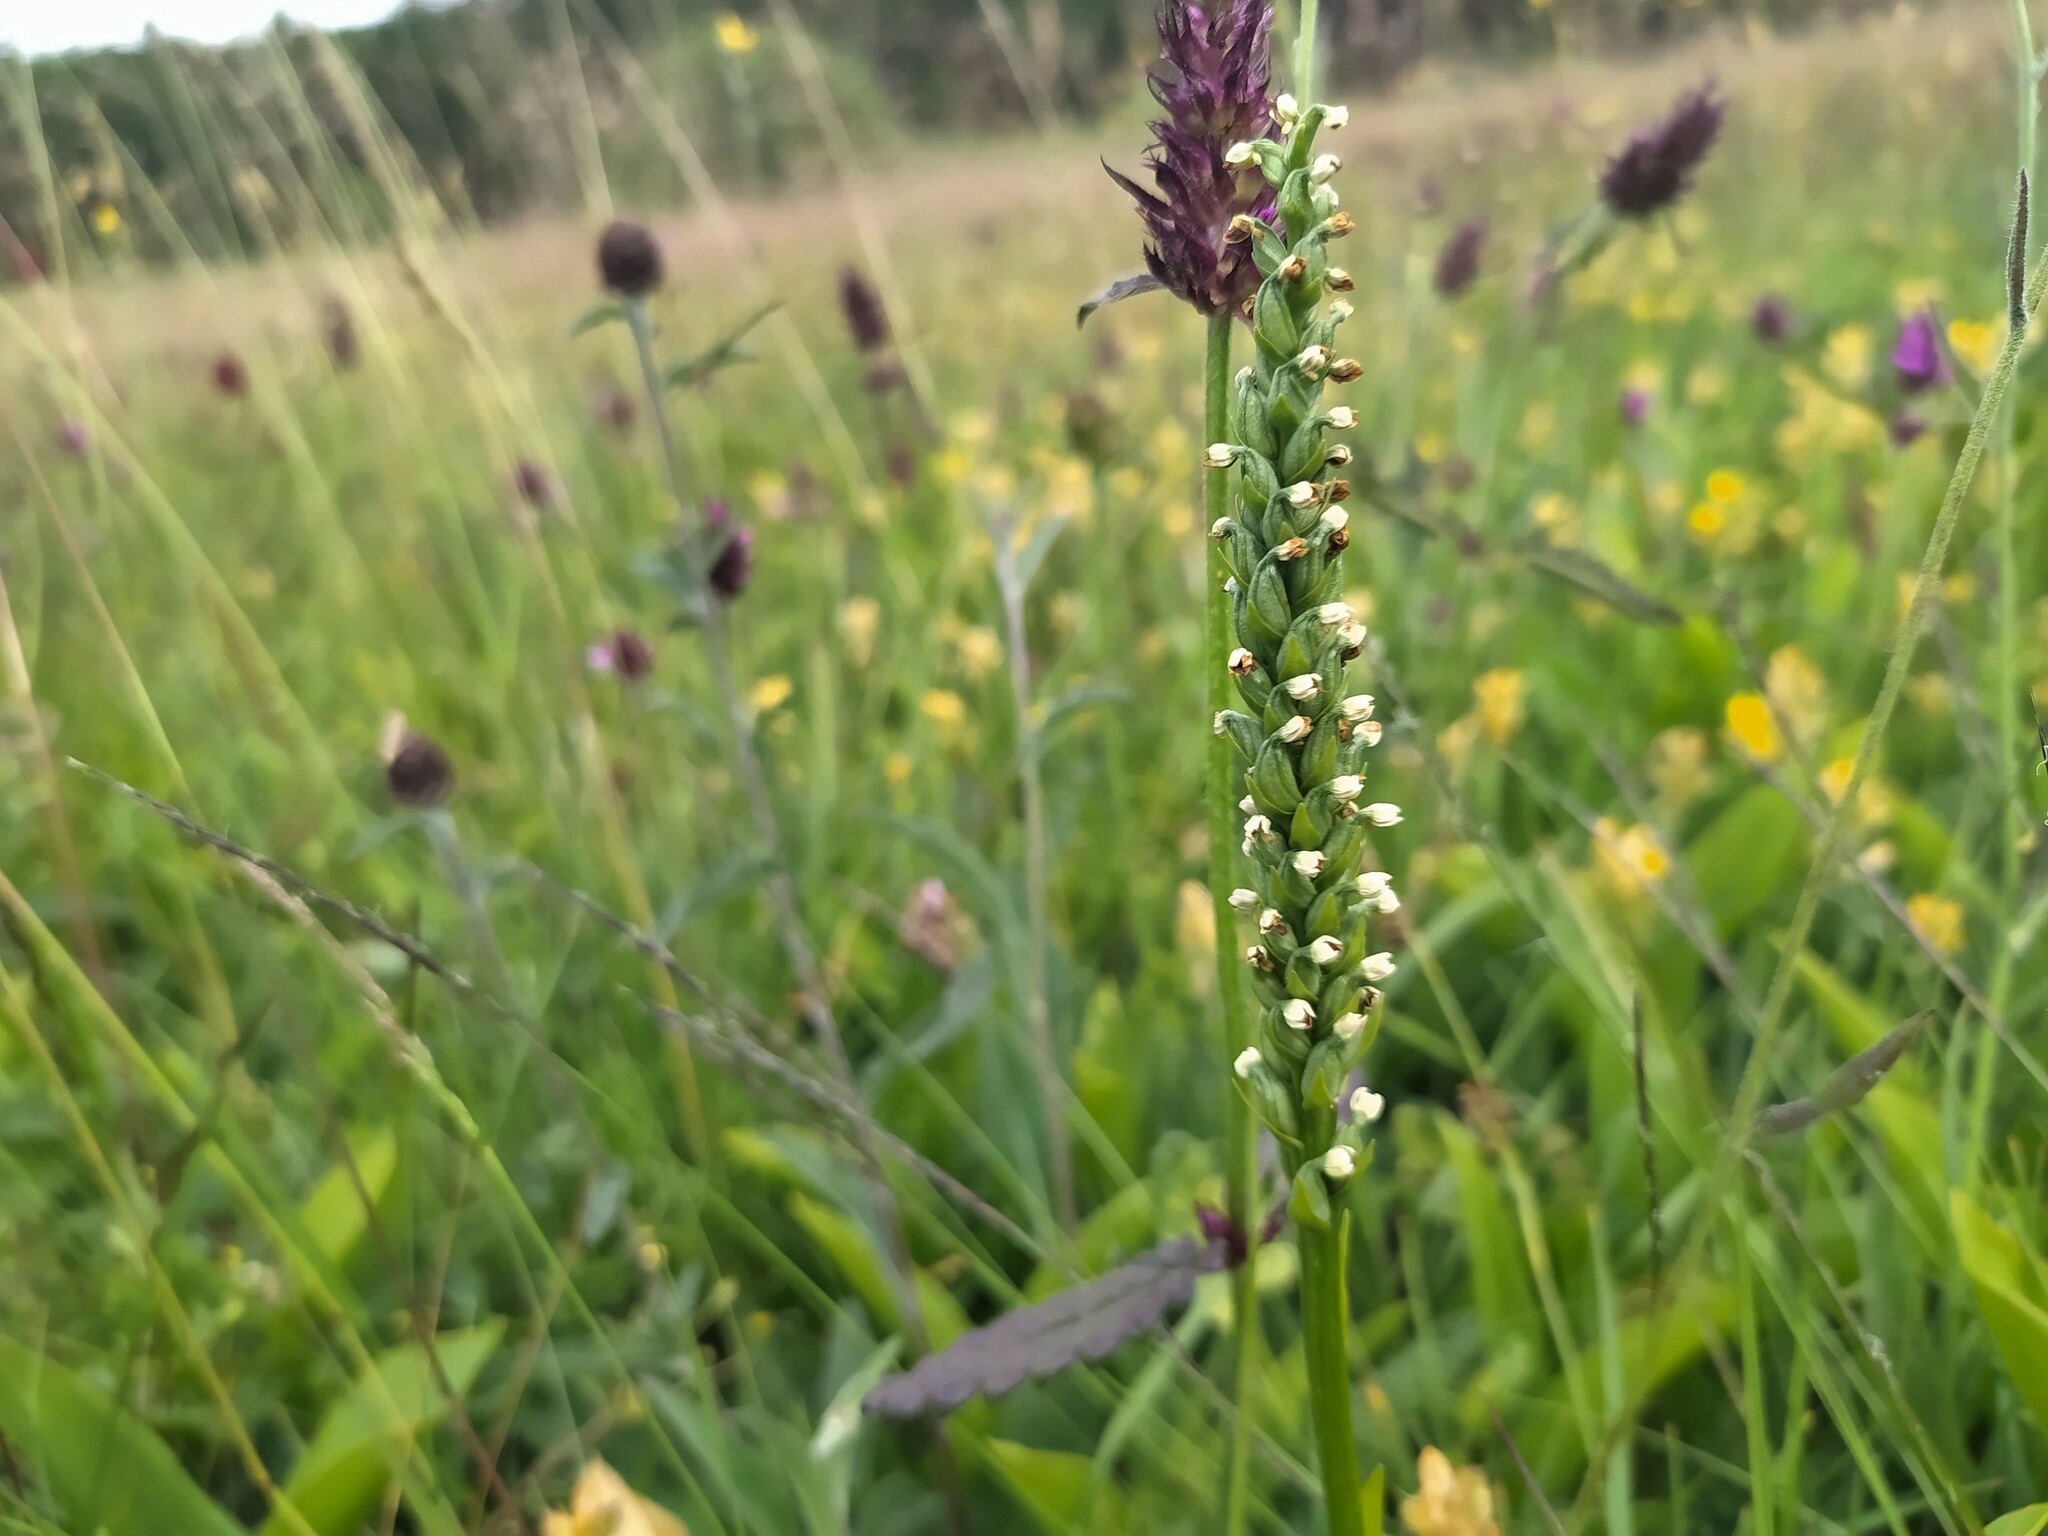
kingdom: Plantae
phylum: Tracheophyta
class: Liliopsida
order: Asparagales
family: Orchidaceae
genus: Pseudorchis
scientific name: Pseudorchis albida
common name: Small-white orchid
